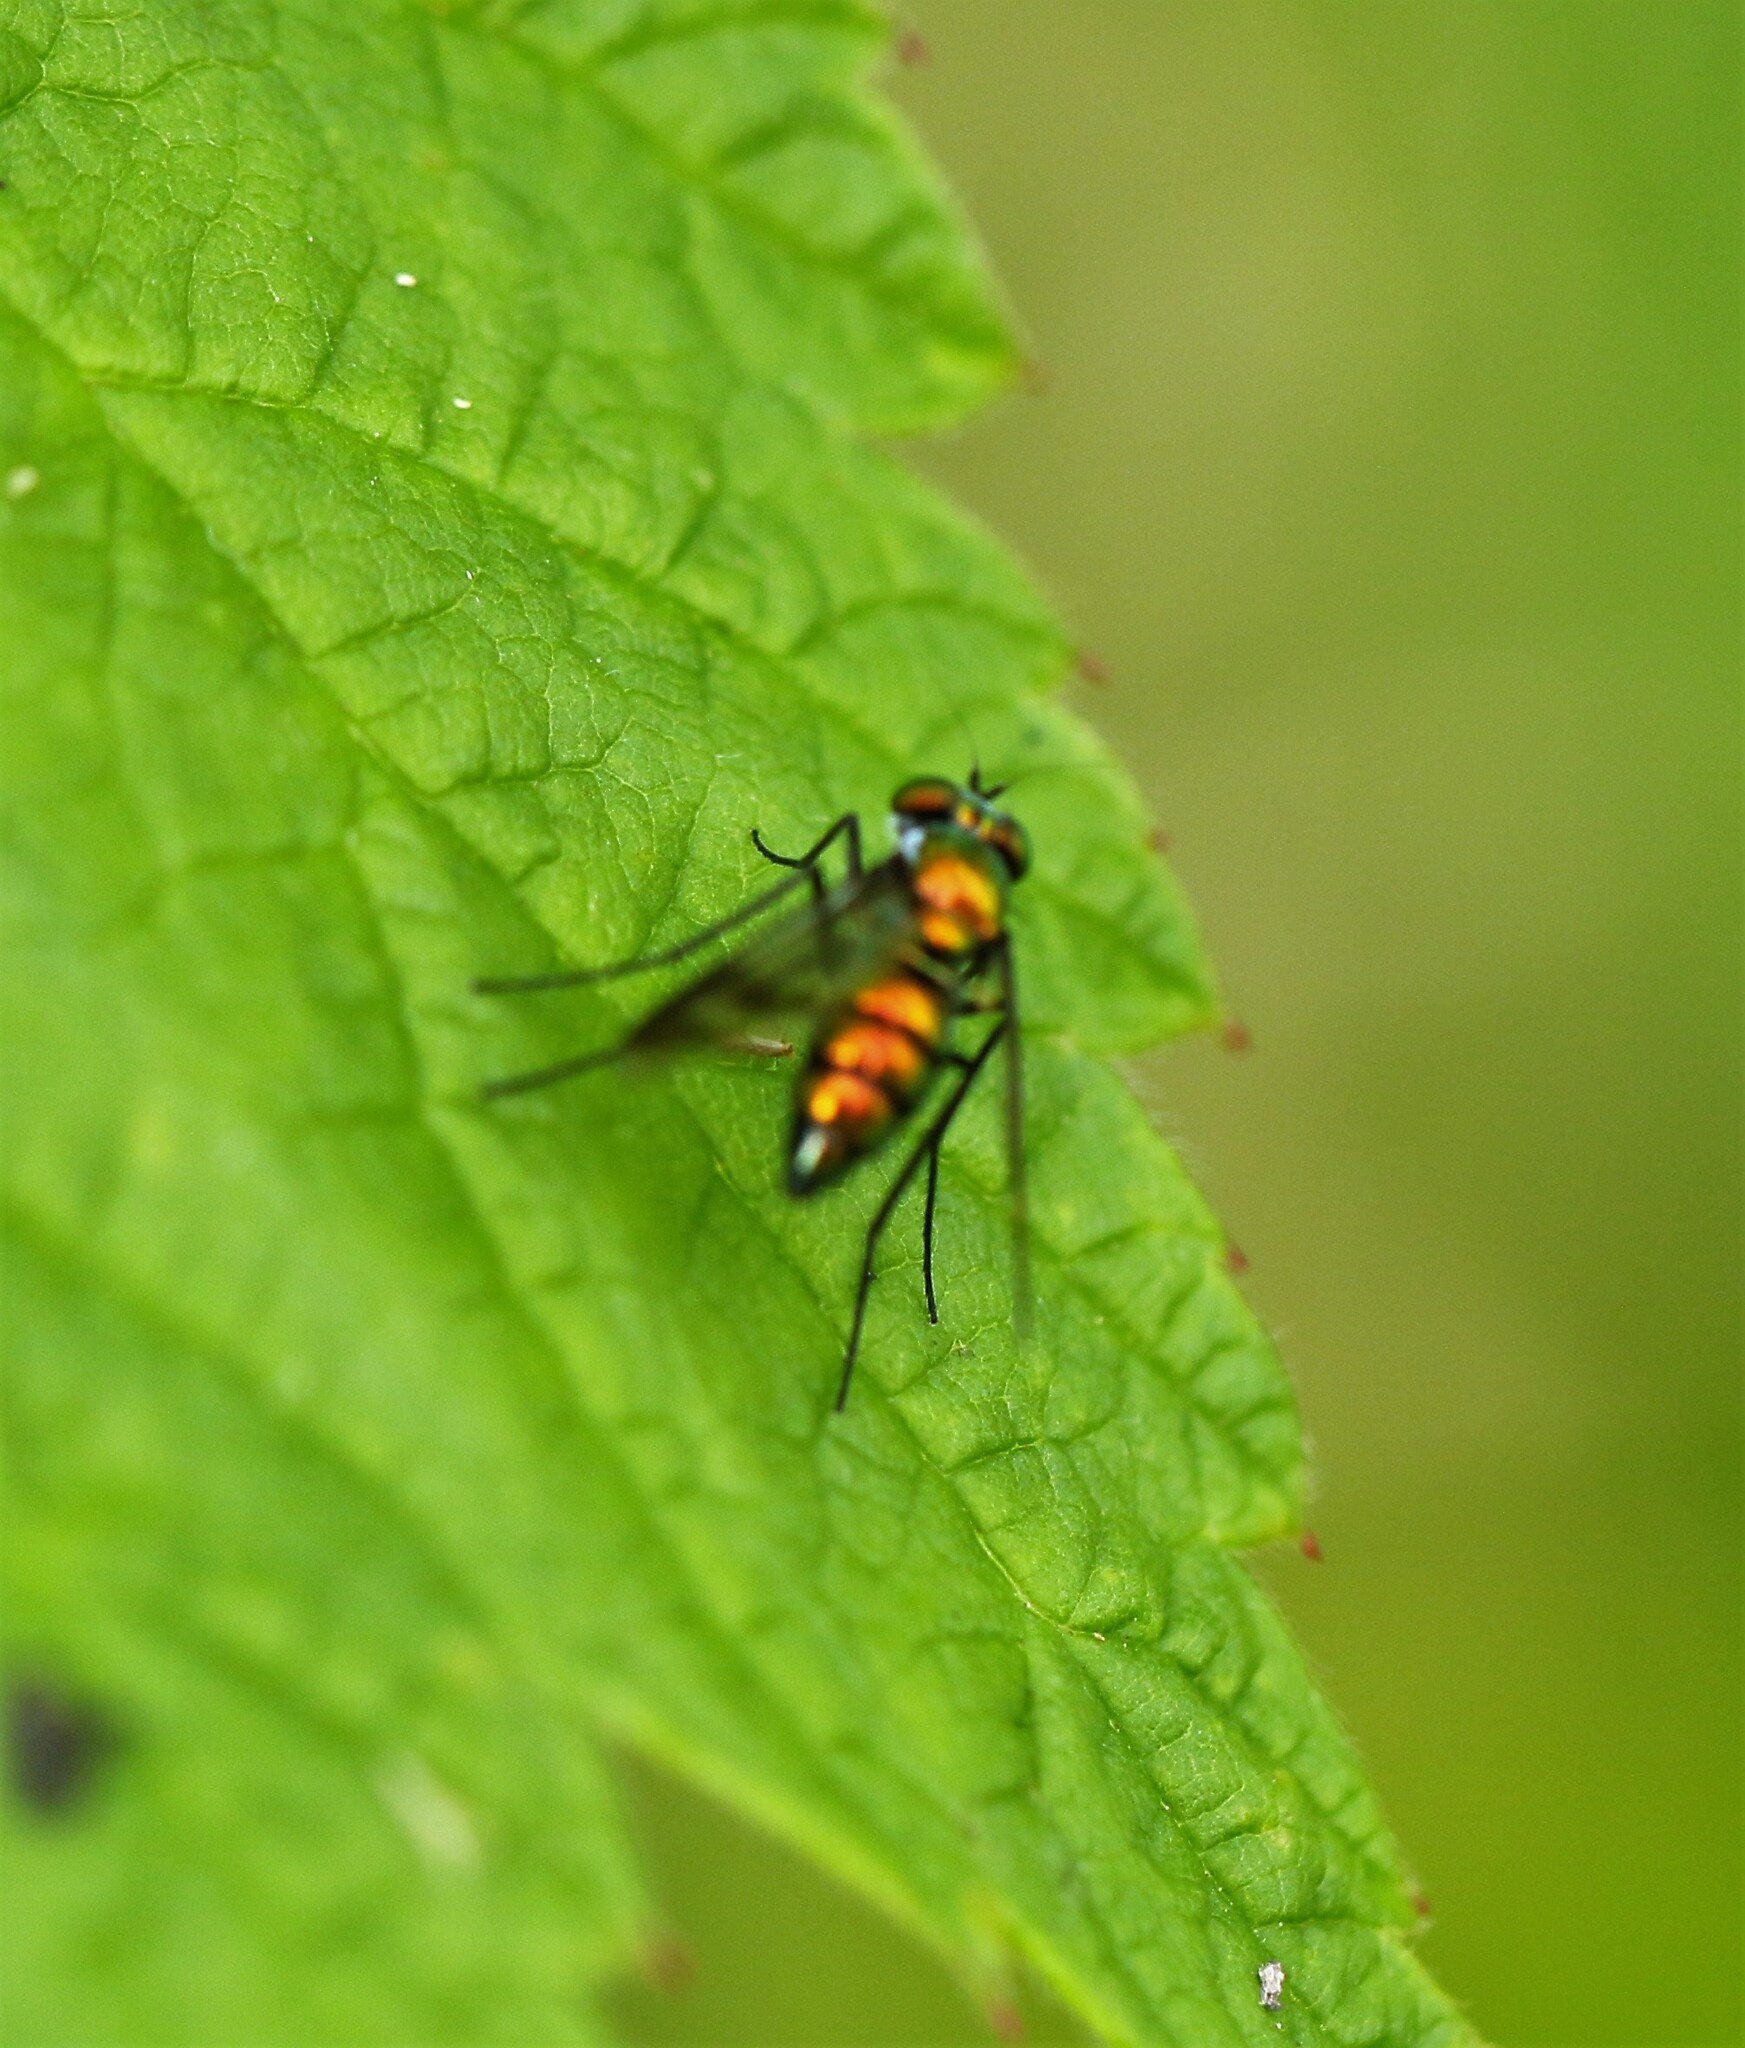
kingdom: Animalia
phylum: Arthropoda
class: Insecta
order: Diptera
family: Dolichopodidae
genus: Condylostylus
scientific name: Condylostylus patibulatus
